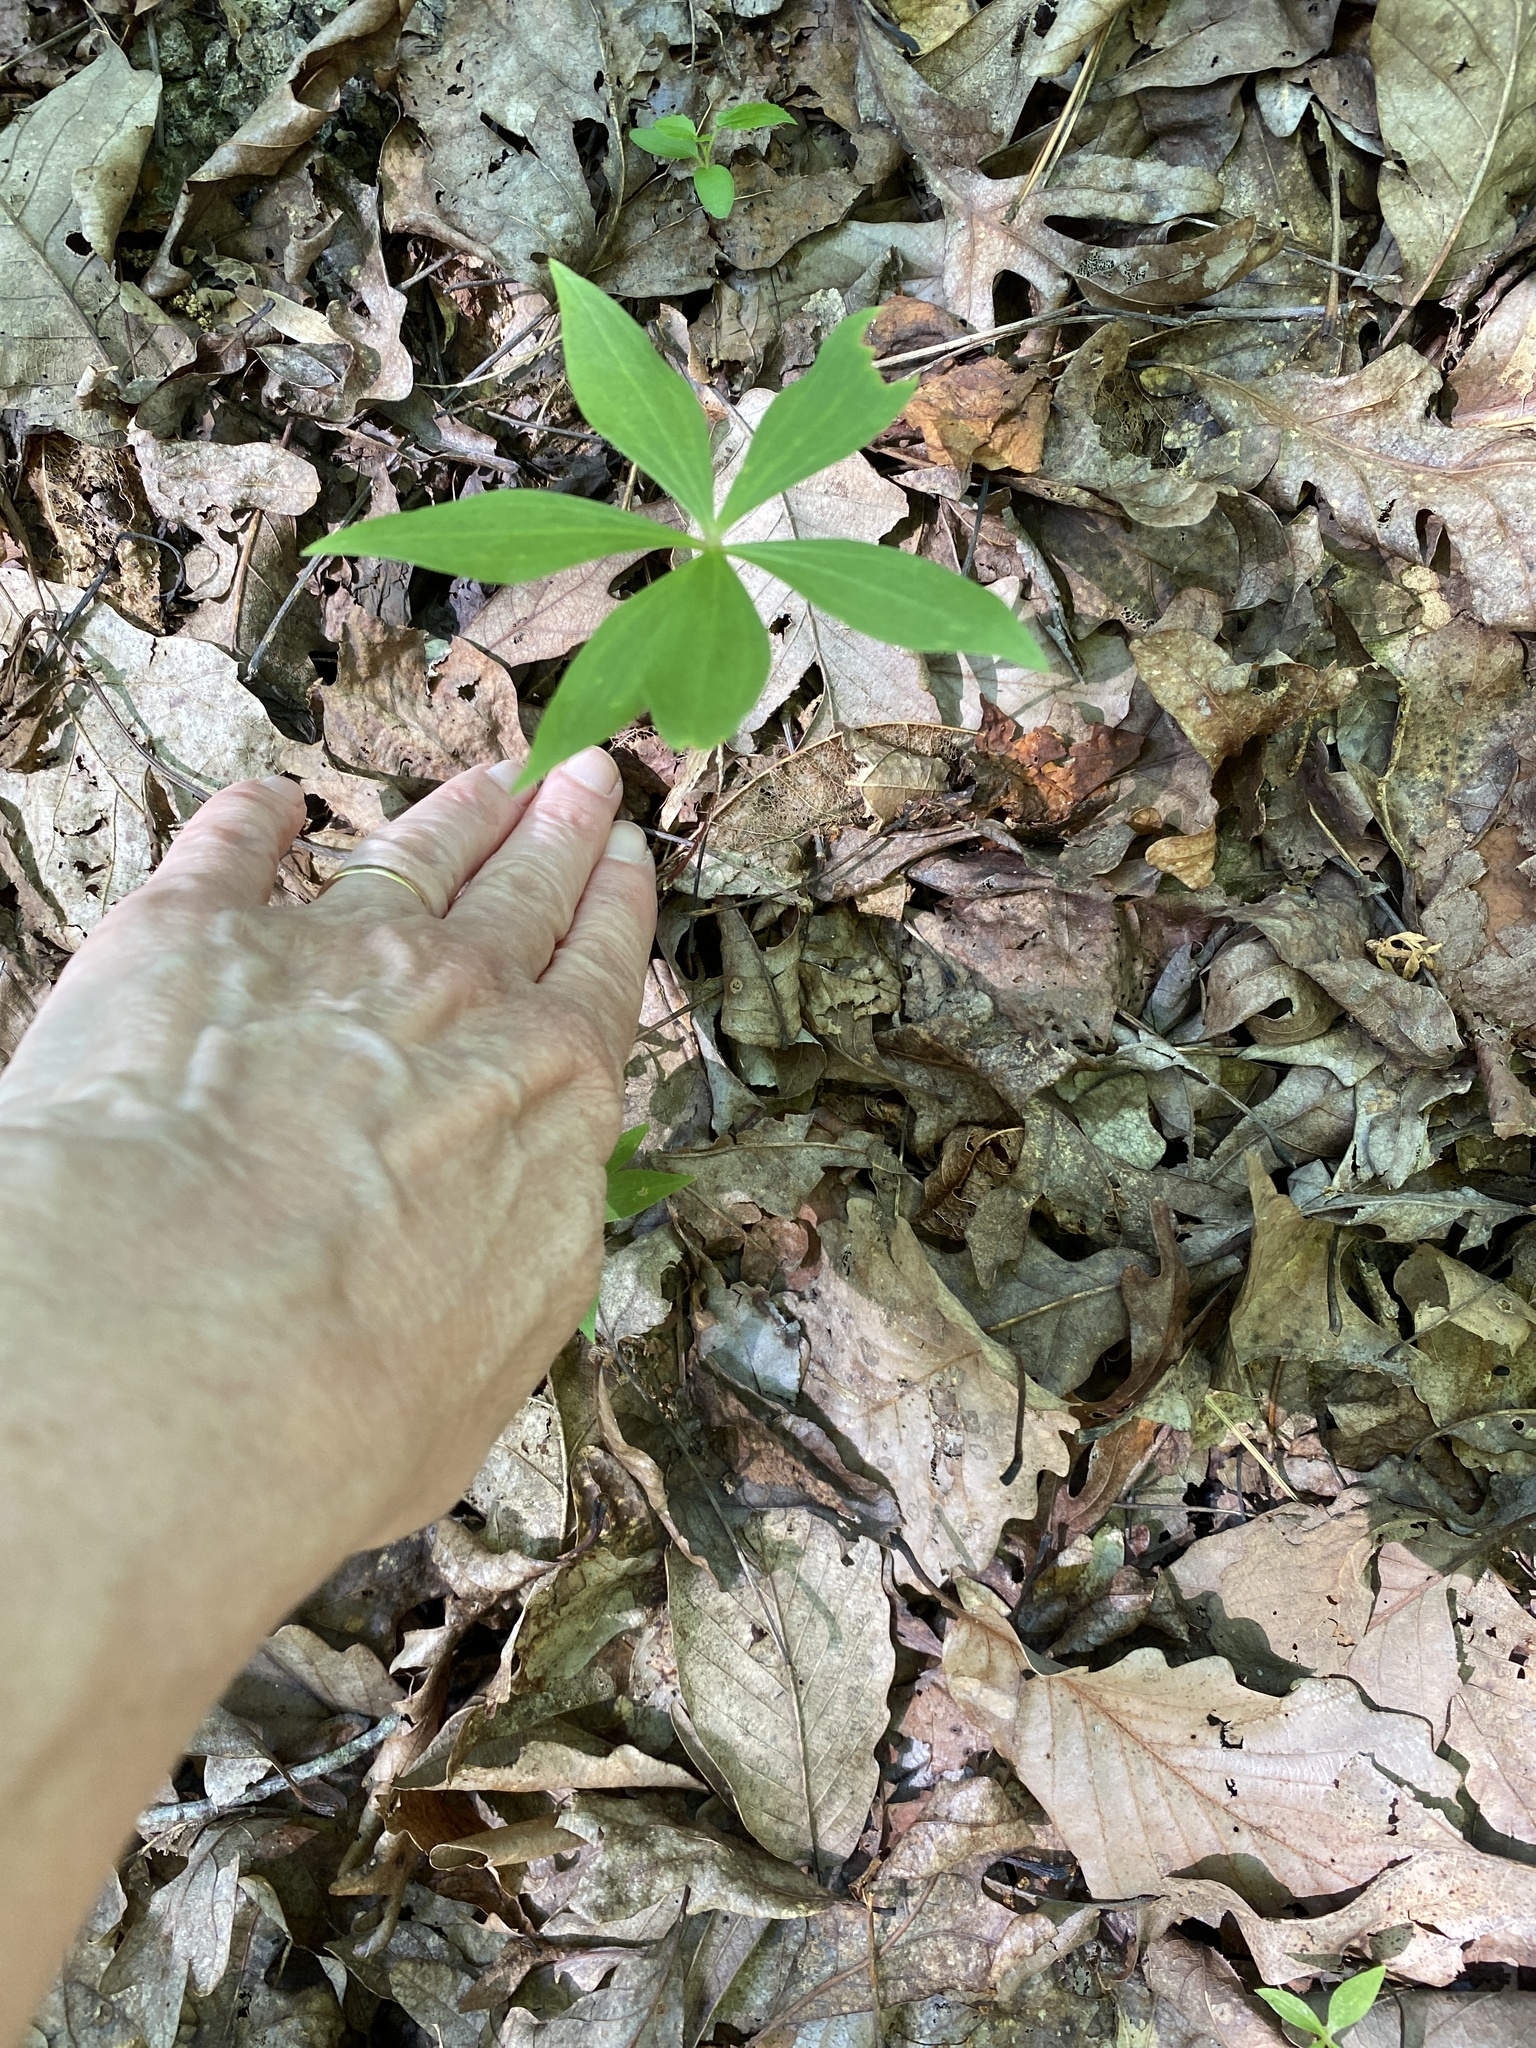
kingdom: Plantae
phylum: Tracheophyta
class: Liliopsida
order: Liliales
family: Liliaceae
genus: Medeola
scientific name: Medeola virginiana
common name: Indian cucumber-root
